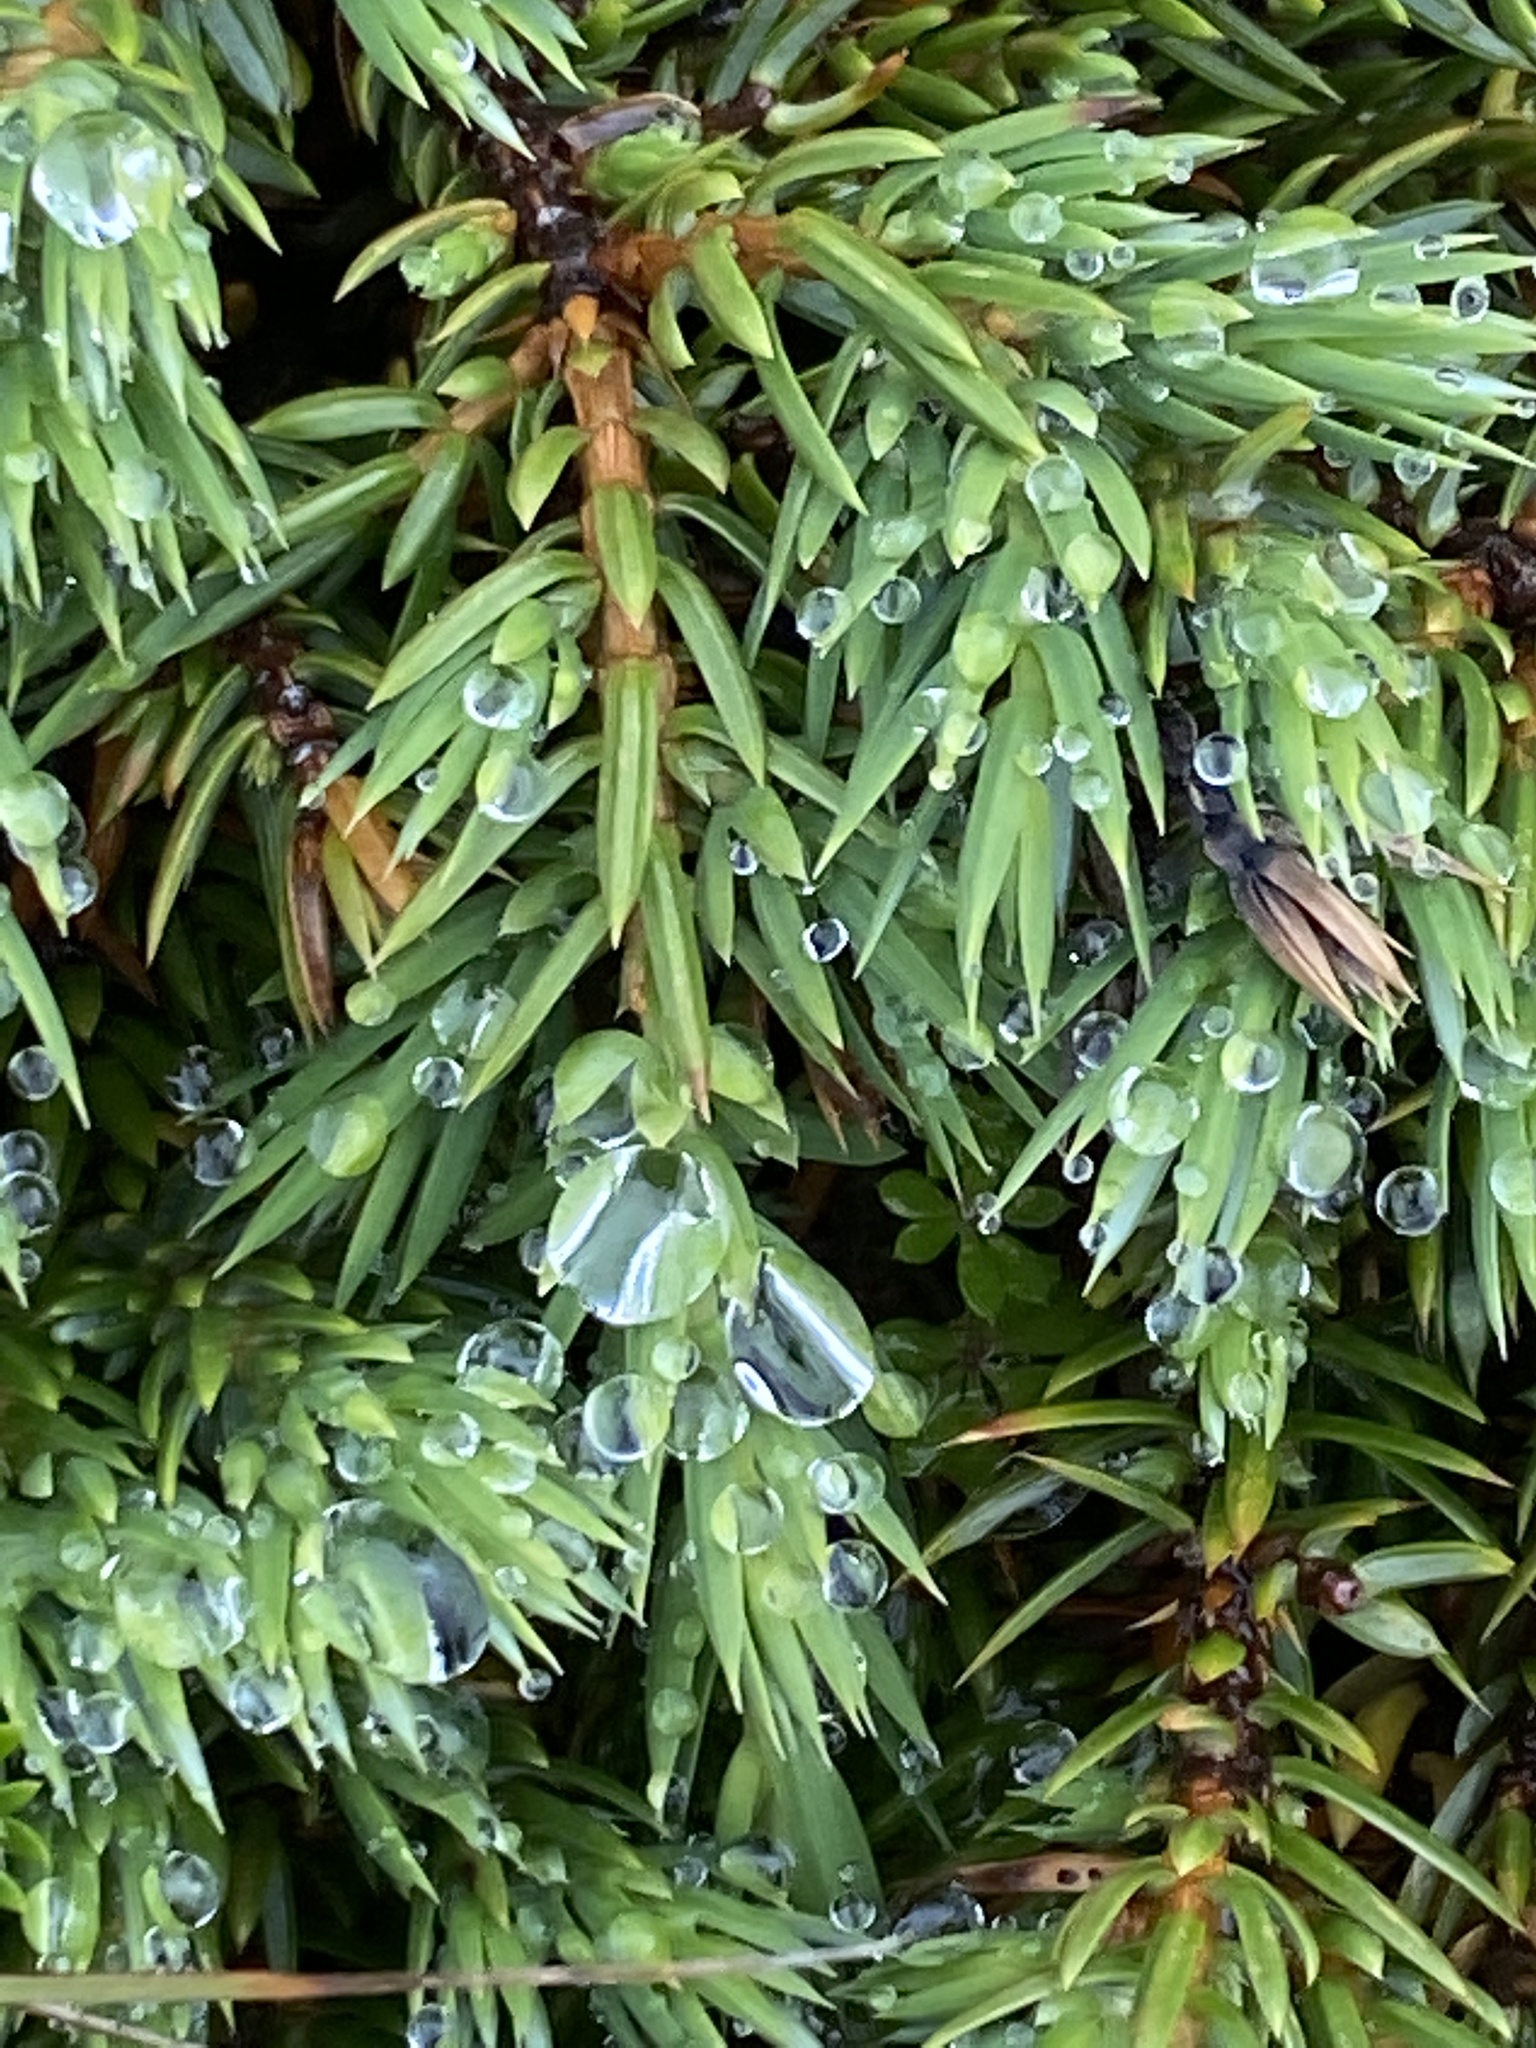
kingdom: Plantae
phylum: Tracheophyta
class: Pinopsida
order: Pinales
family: Cupressaceae
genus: Juniperus
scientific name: Juniperus communis
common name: Common juniper
